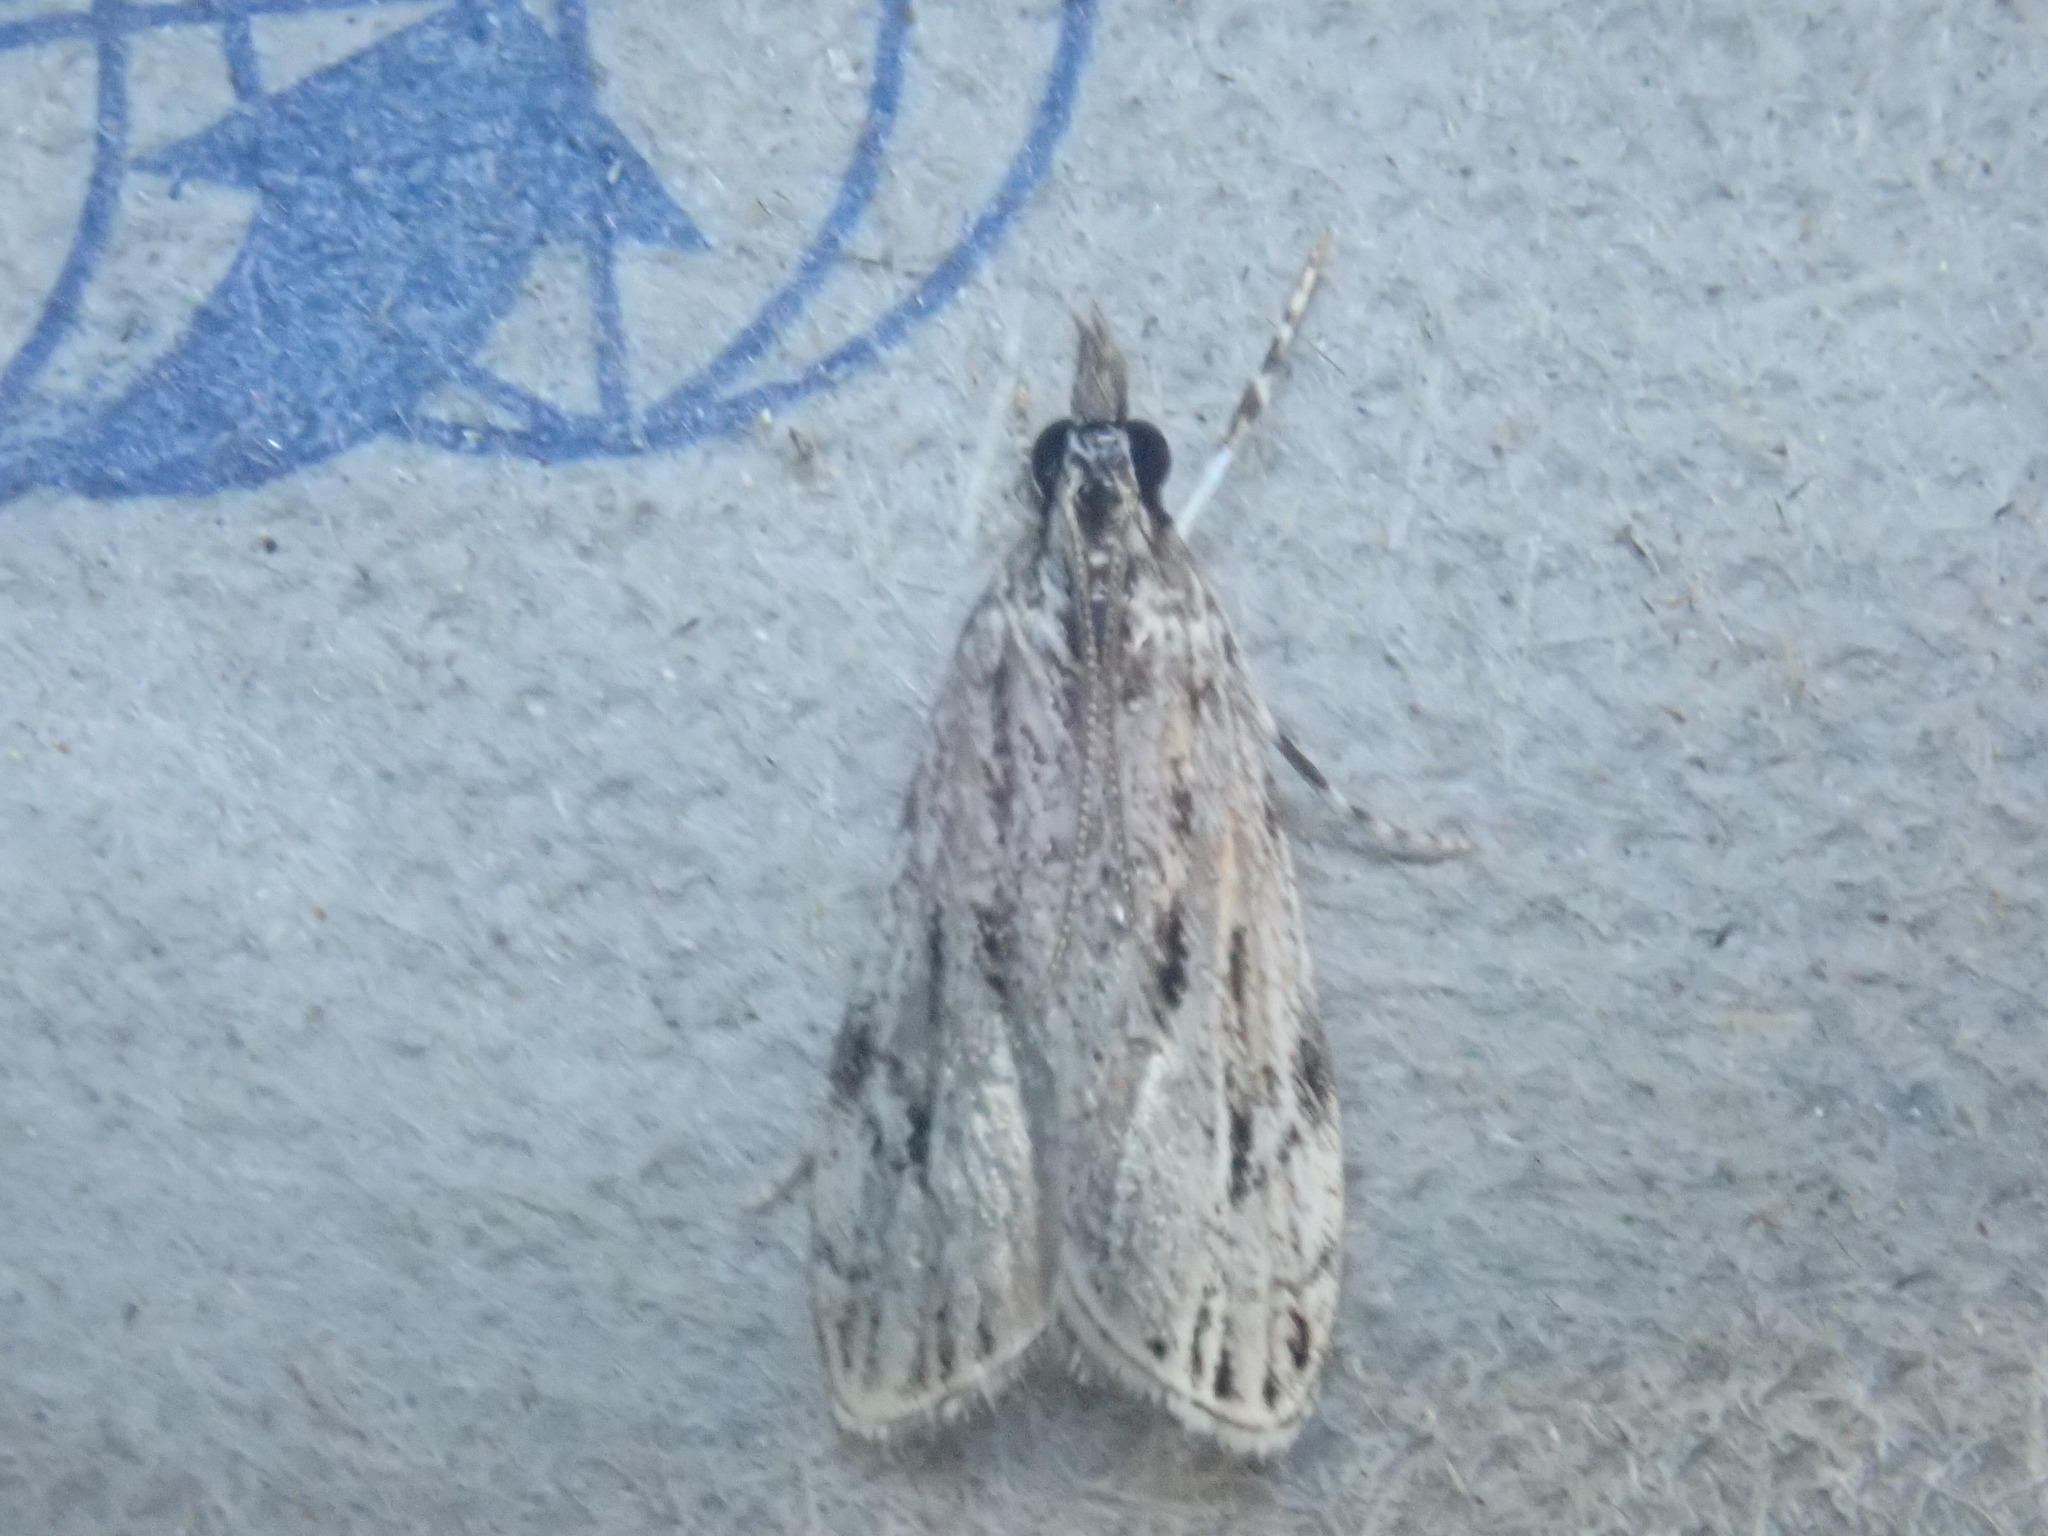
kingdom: Animalia
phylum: Arthropoda
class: Insecta
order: Lepidoptera
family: Crambidae
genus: Eudonia
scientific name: Eudonia strigalis
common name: Striped eudonia moth
